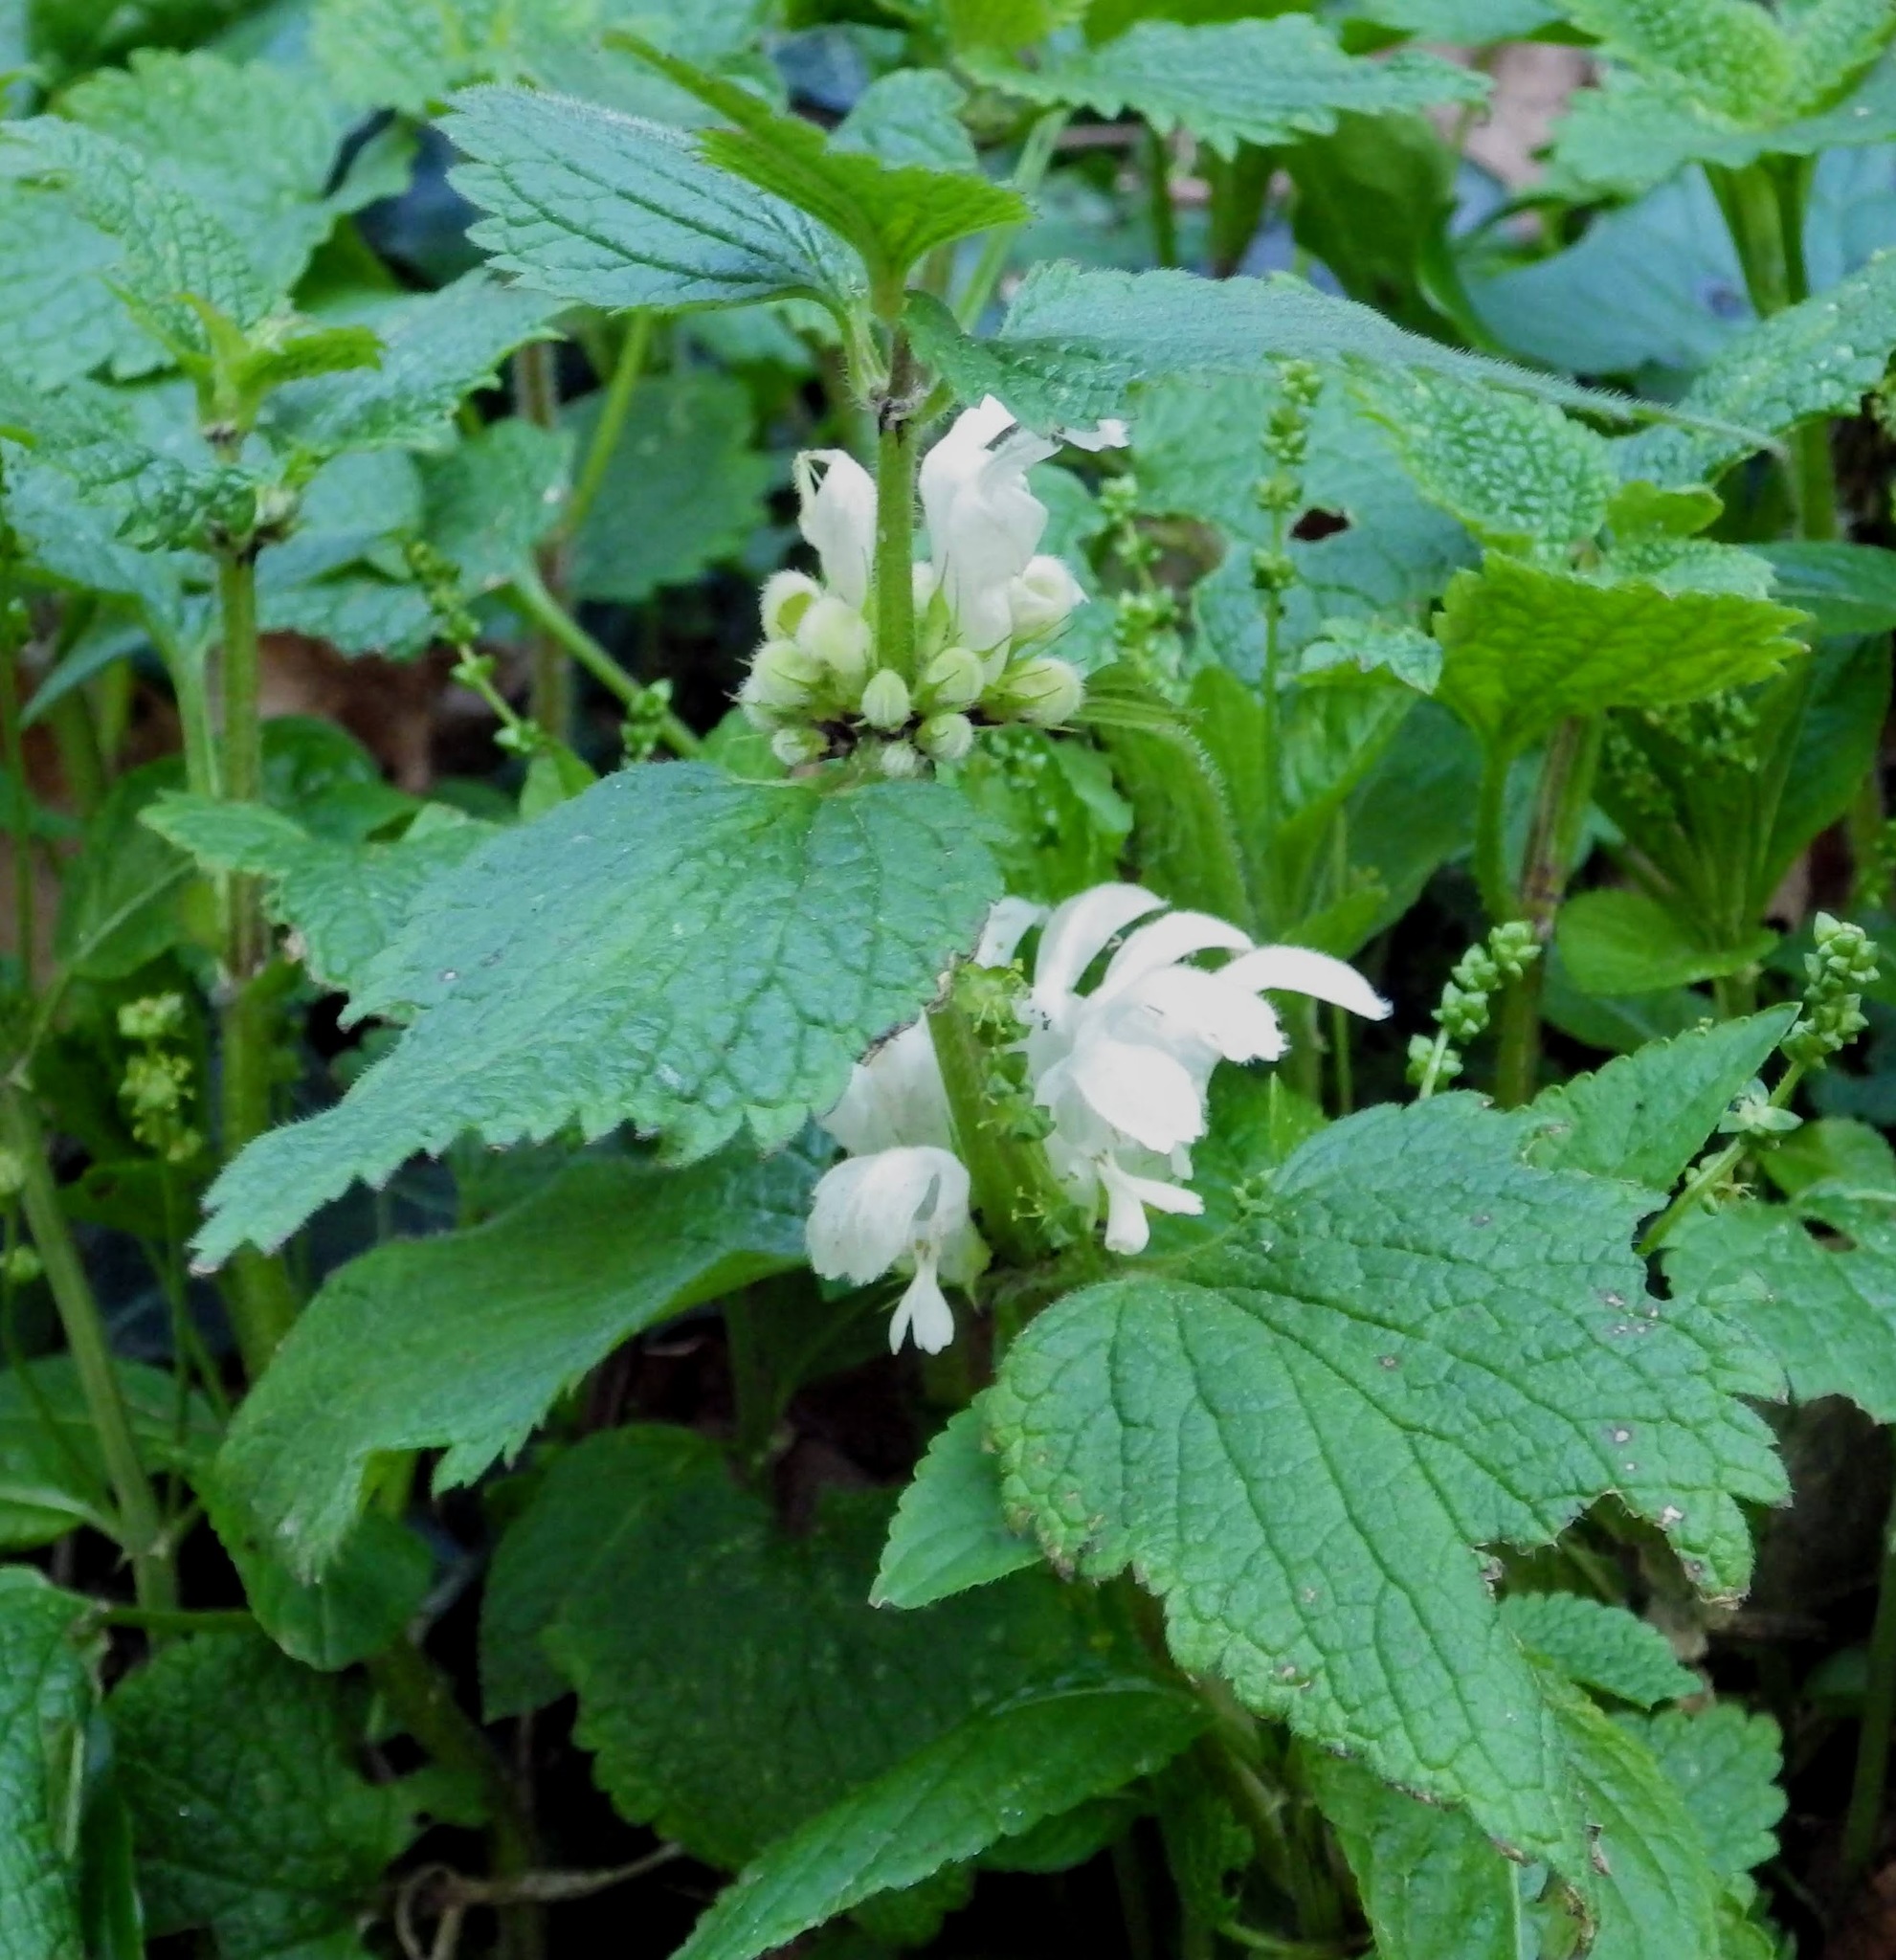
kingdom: Plantae
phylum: Tracheophyta
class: Magnoliopsida
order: Lamiales
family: Lamiaceae
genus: Lamium
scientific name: Lamium album
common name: White dead-nettle
